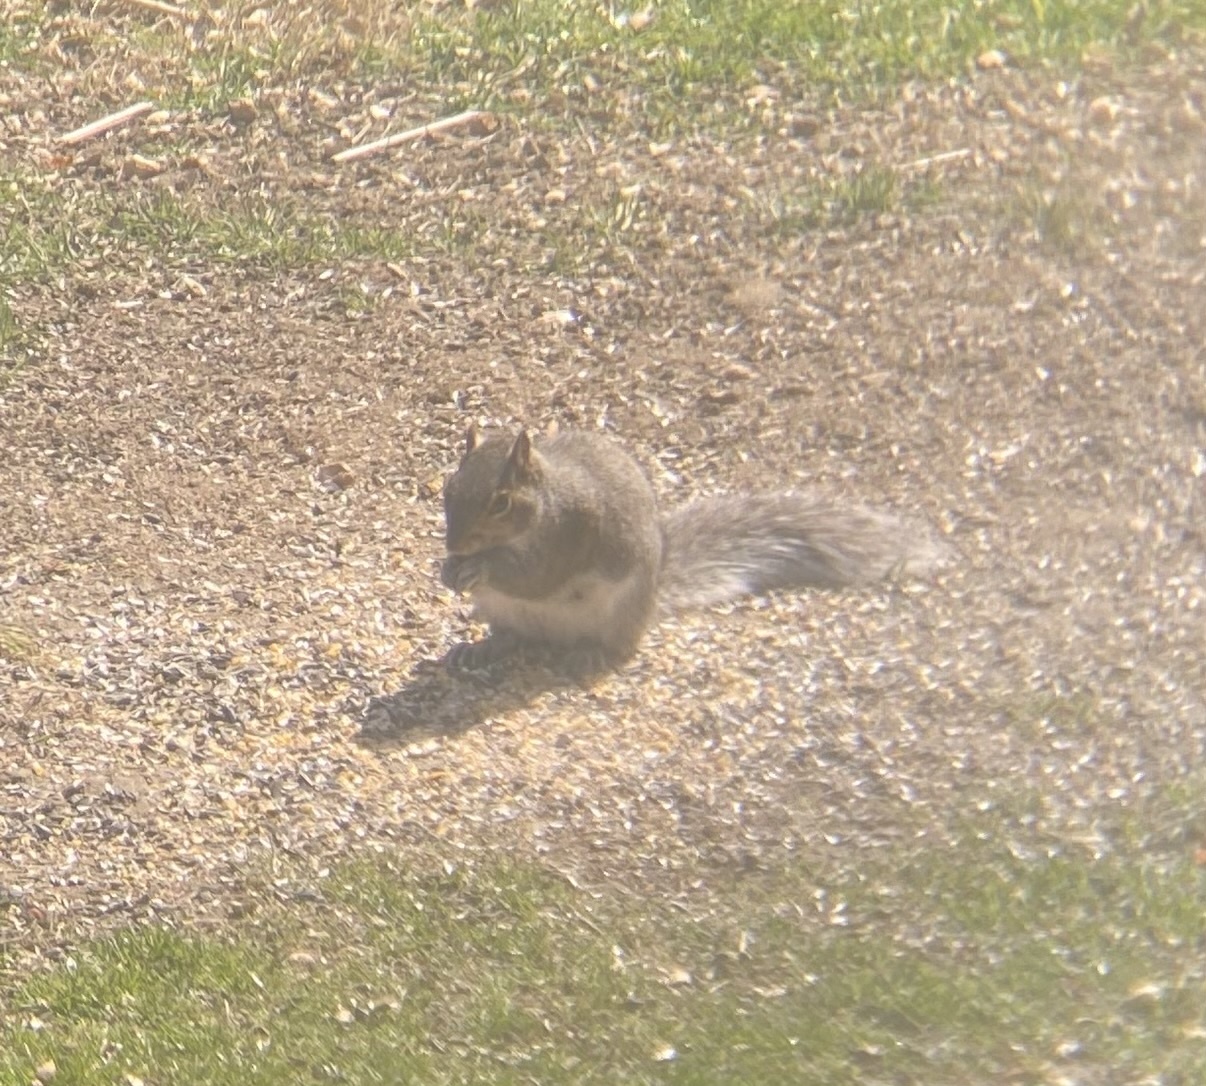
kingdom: Animalia
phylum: Chordata
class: Mammalia
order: Rodentia
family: Sciuridae
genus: Sciurus
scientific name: Sciurus carolinensis
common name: Eastern gray squirrel
